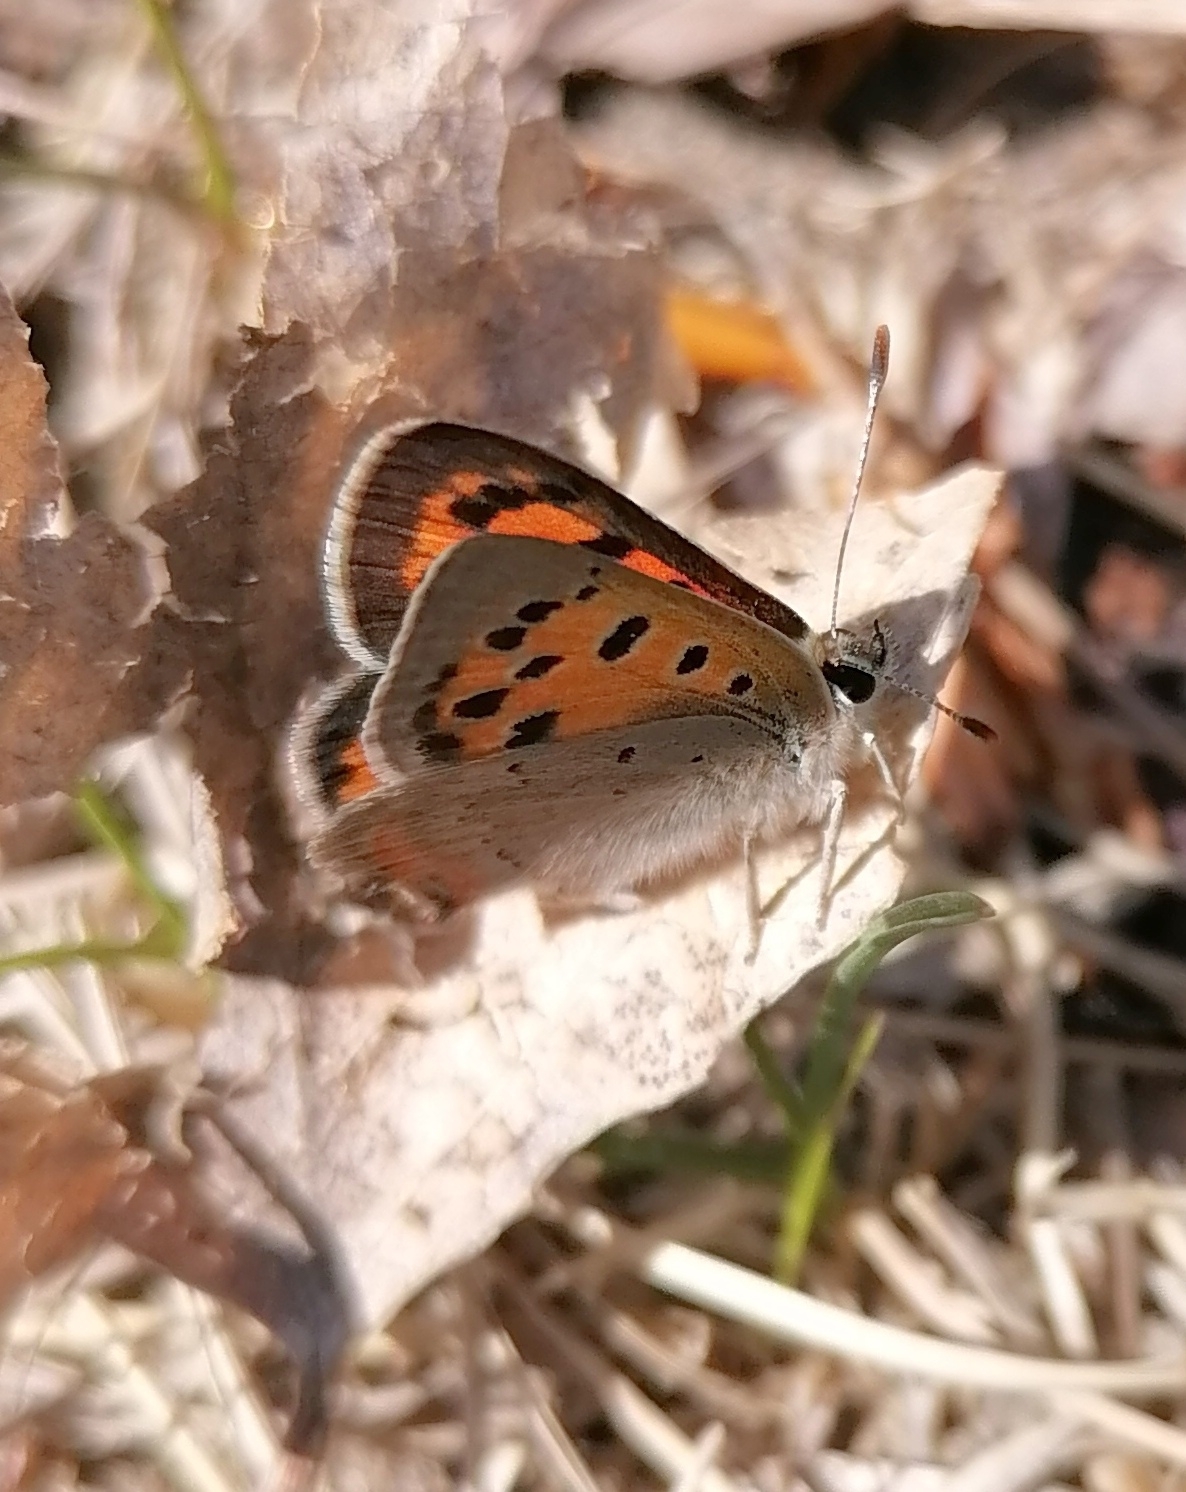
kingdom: Animalia
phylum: Arthropoda
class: Insecta
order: Lepidoptera
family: Lycaenidae
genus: Lycaena
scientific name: Lycaena phlaeas
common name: Small copper
